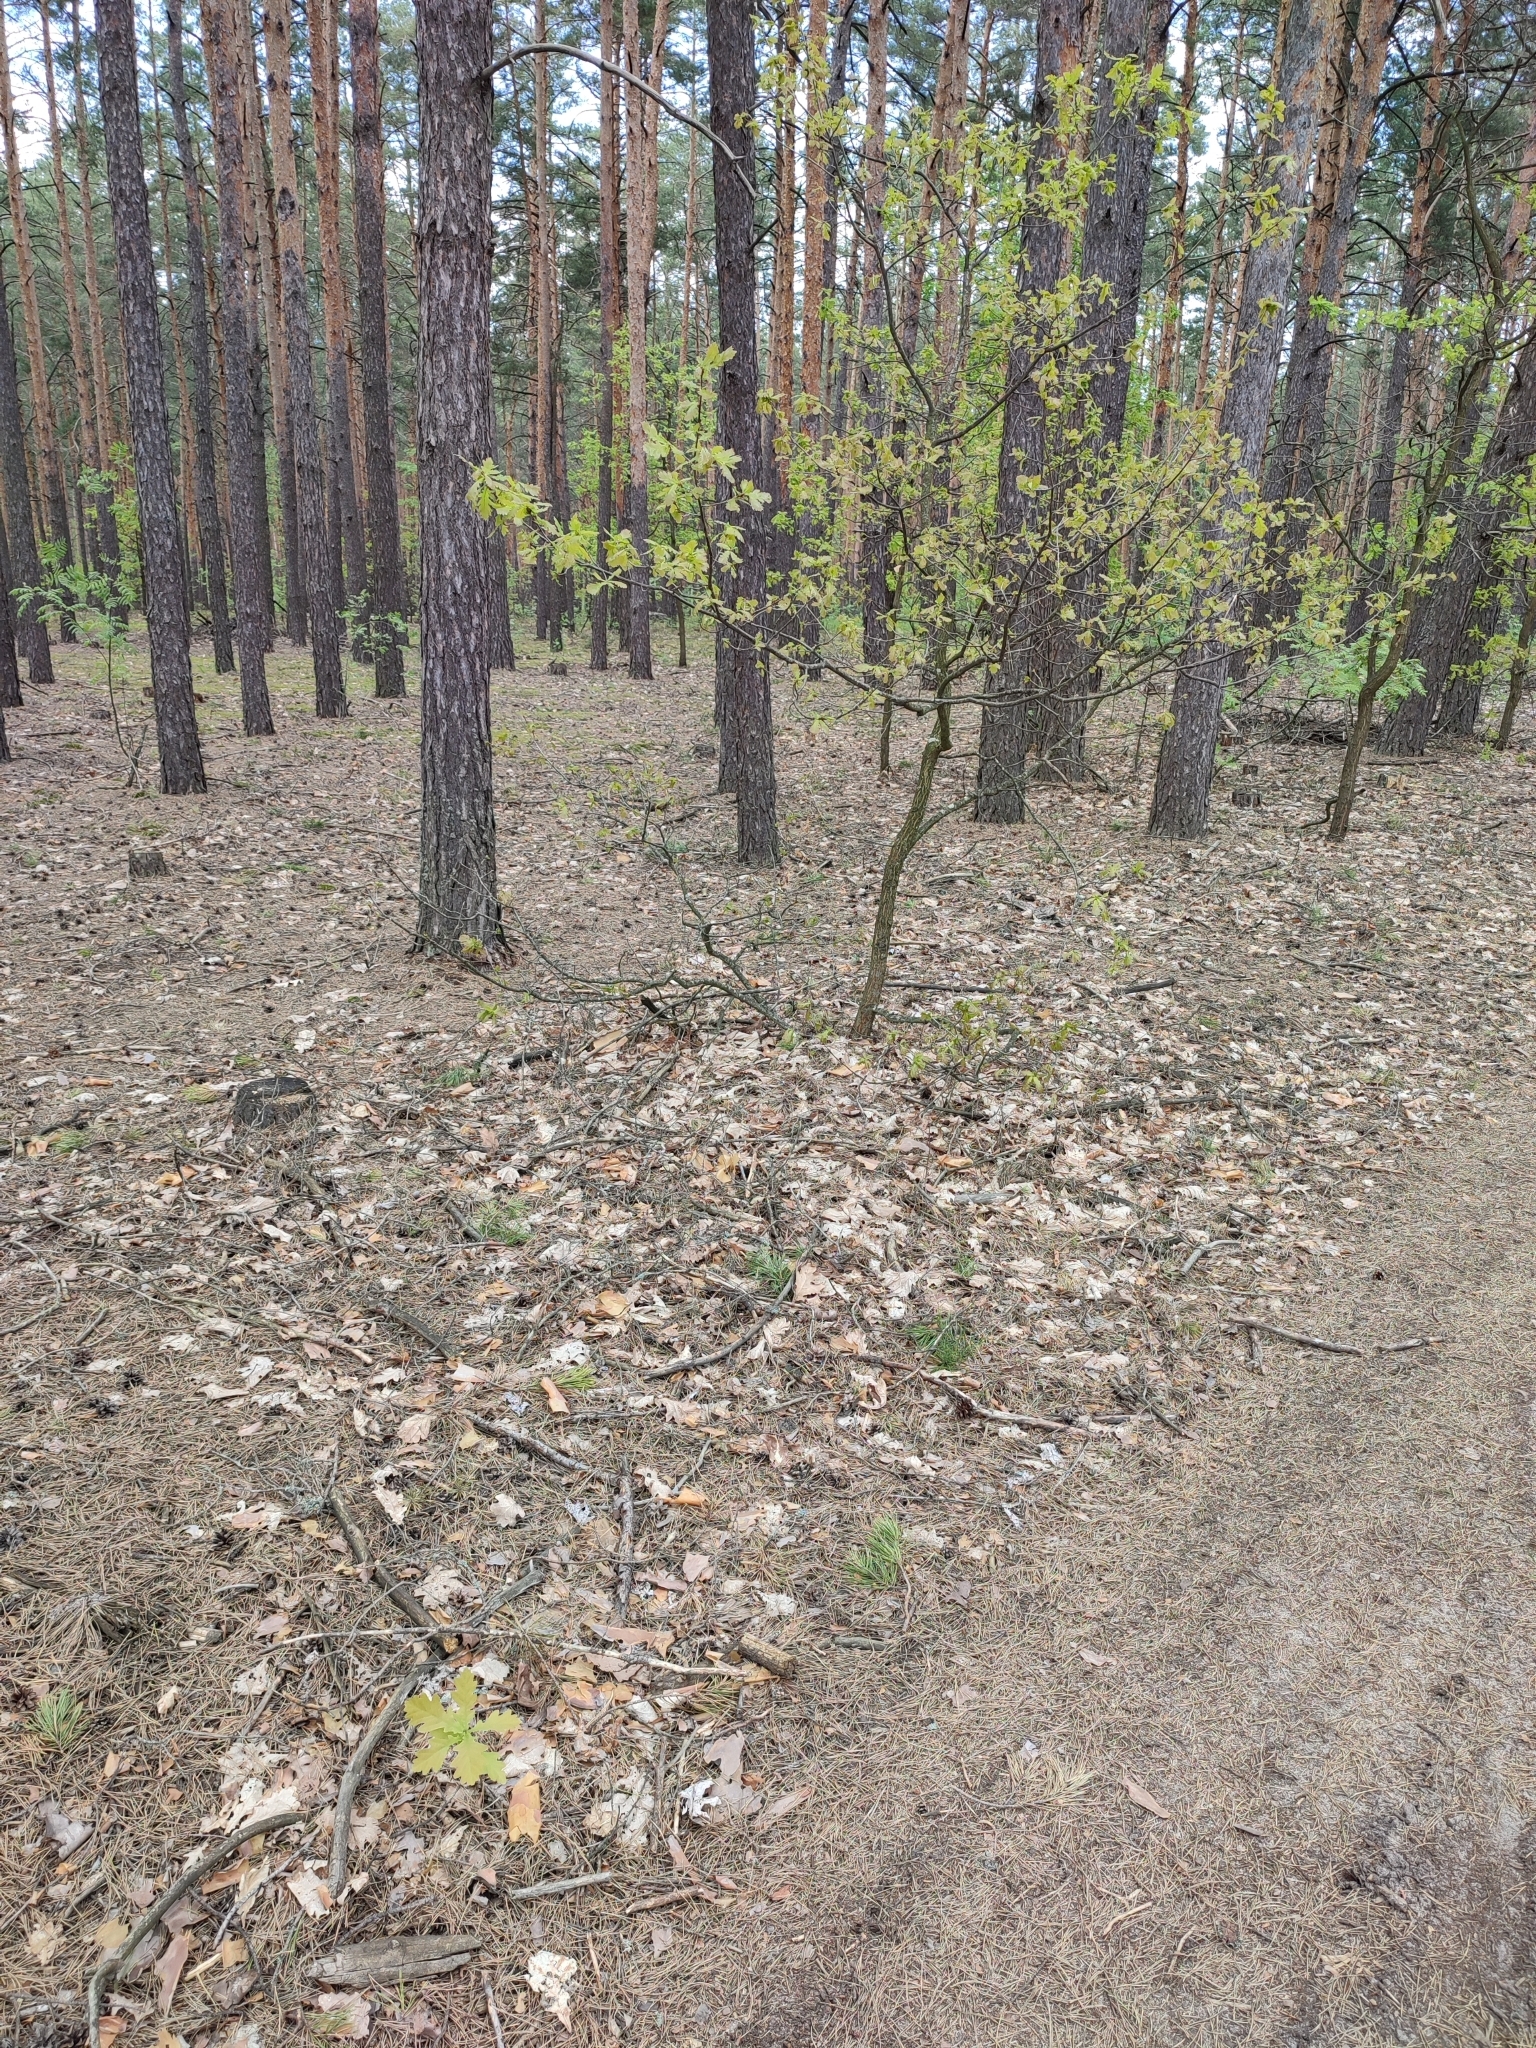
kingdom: Plantae
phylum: Tracheophyta
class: Magnoliopsida
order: Fagales
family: Fagaceae
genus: Quercus
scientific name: Quercus robur
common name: Pedunculate oak
